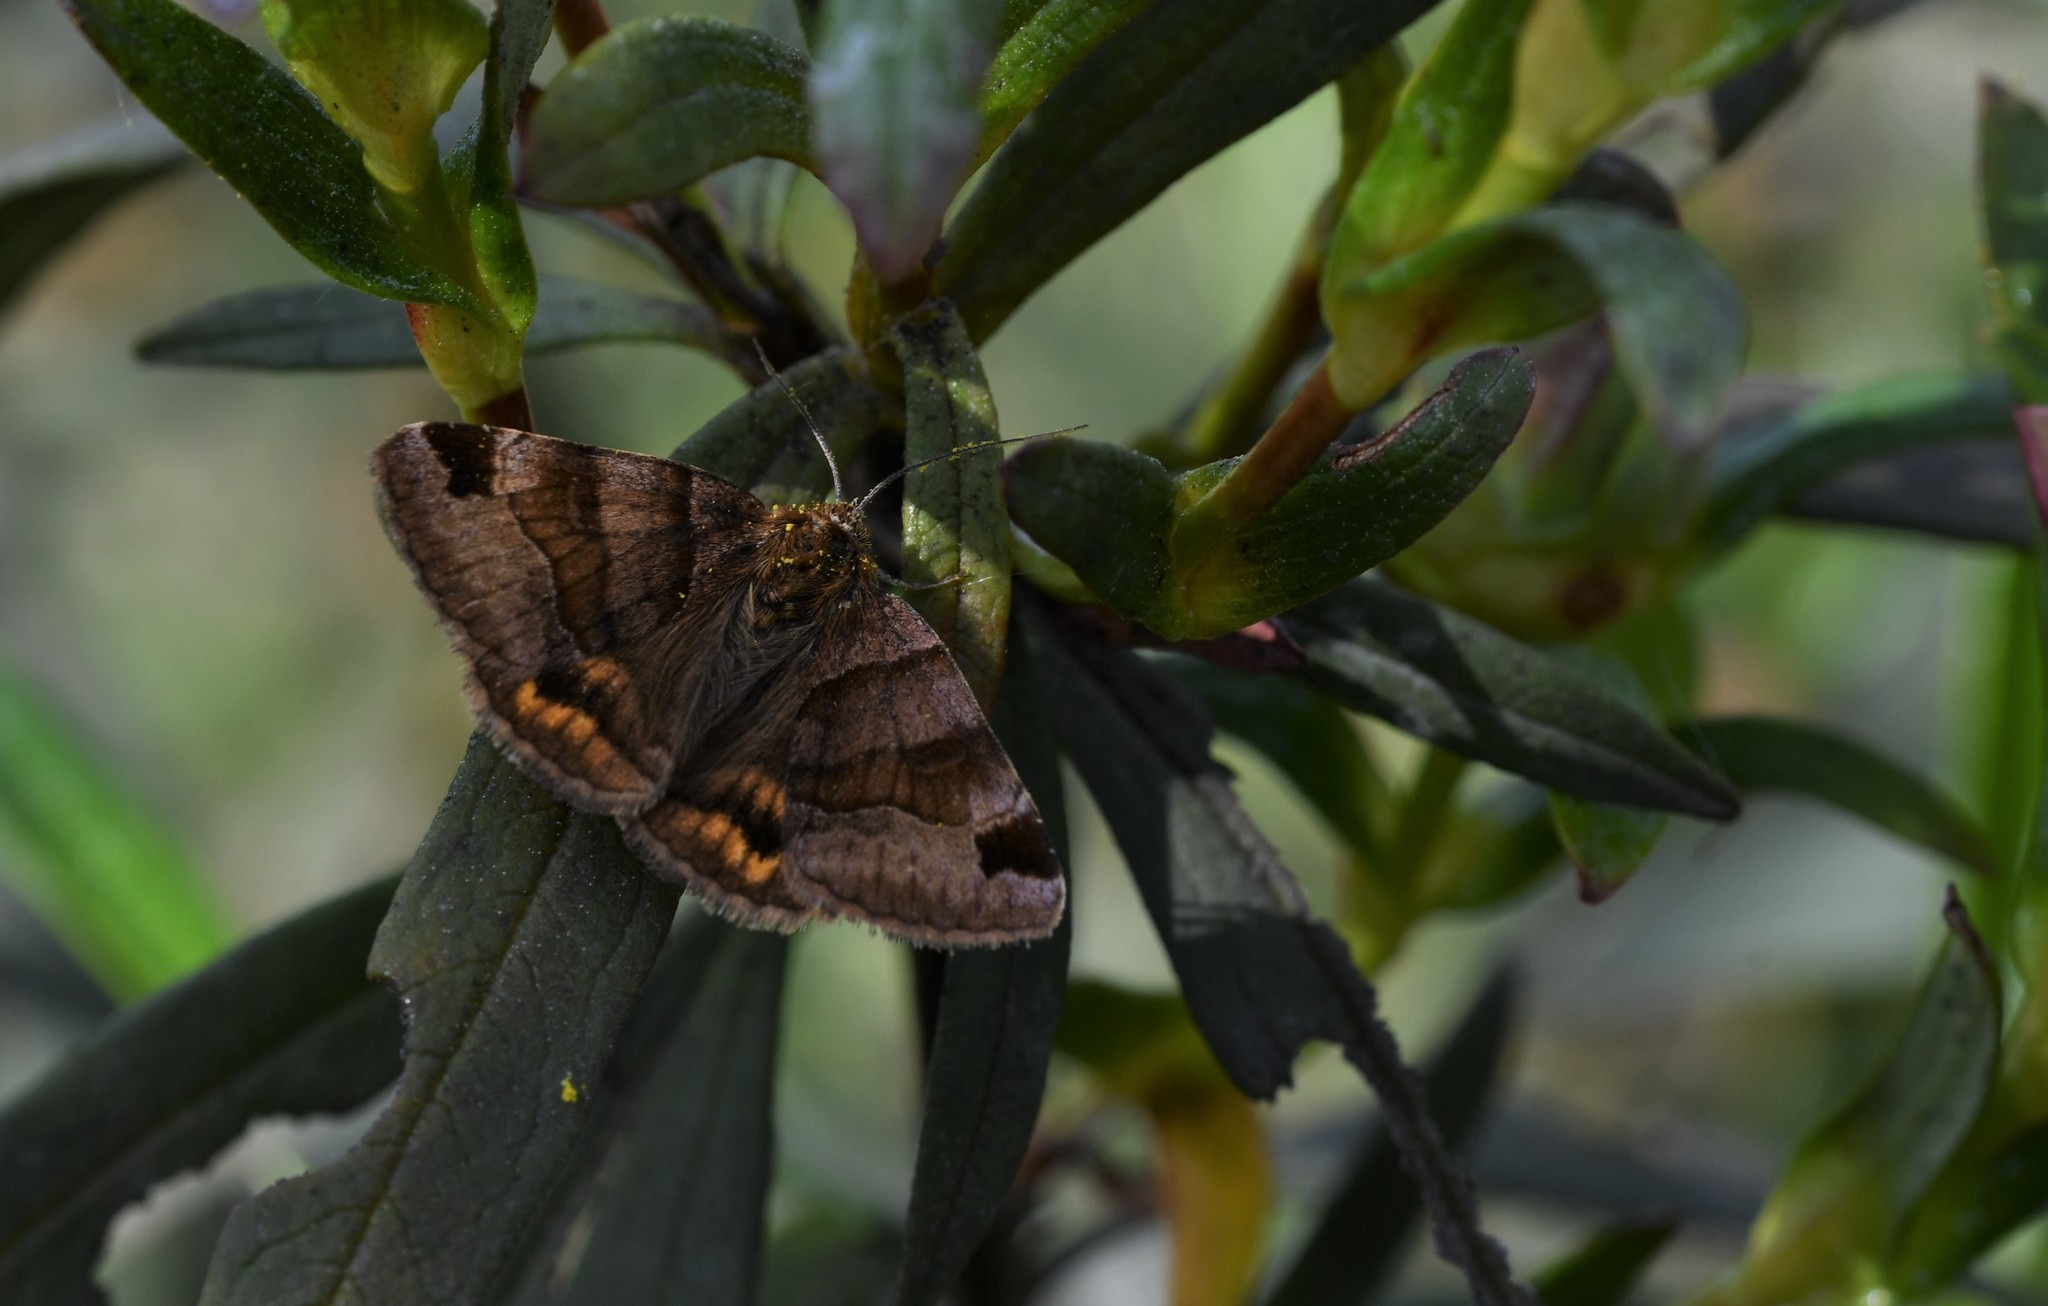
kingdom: Animalia
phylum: Arthropoda
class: Insecta
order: Lepidoptera
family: Erebidae
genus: Euclidia
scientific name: Euclidia glyphica
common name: Burnet companion
